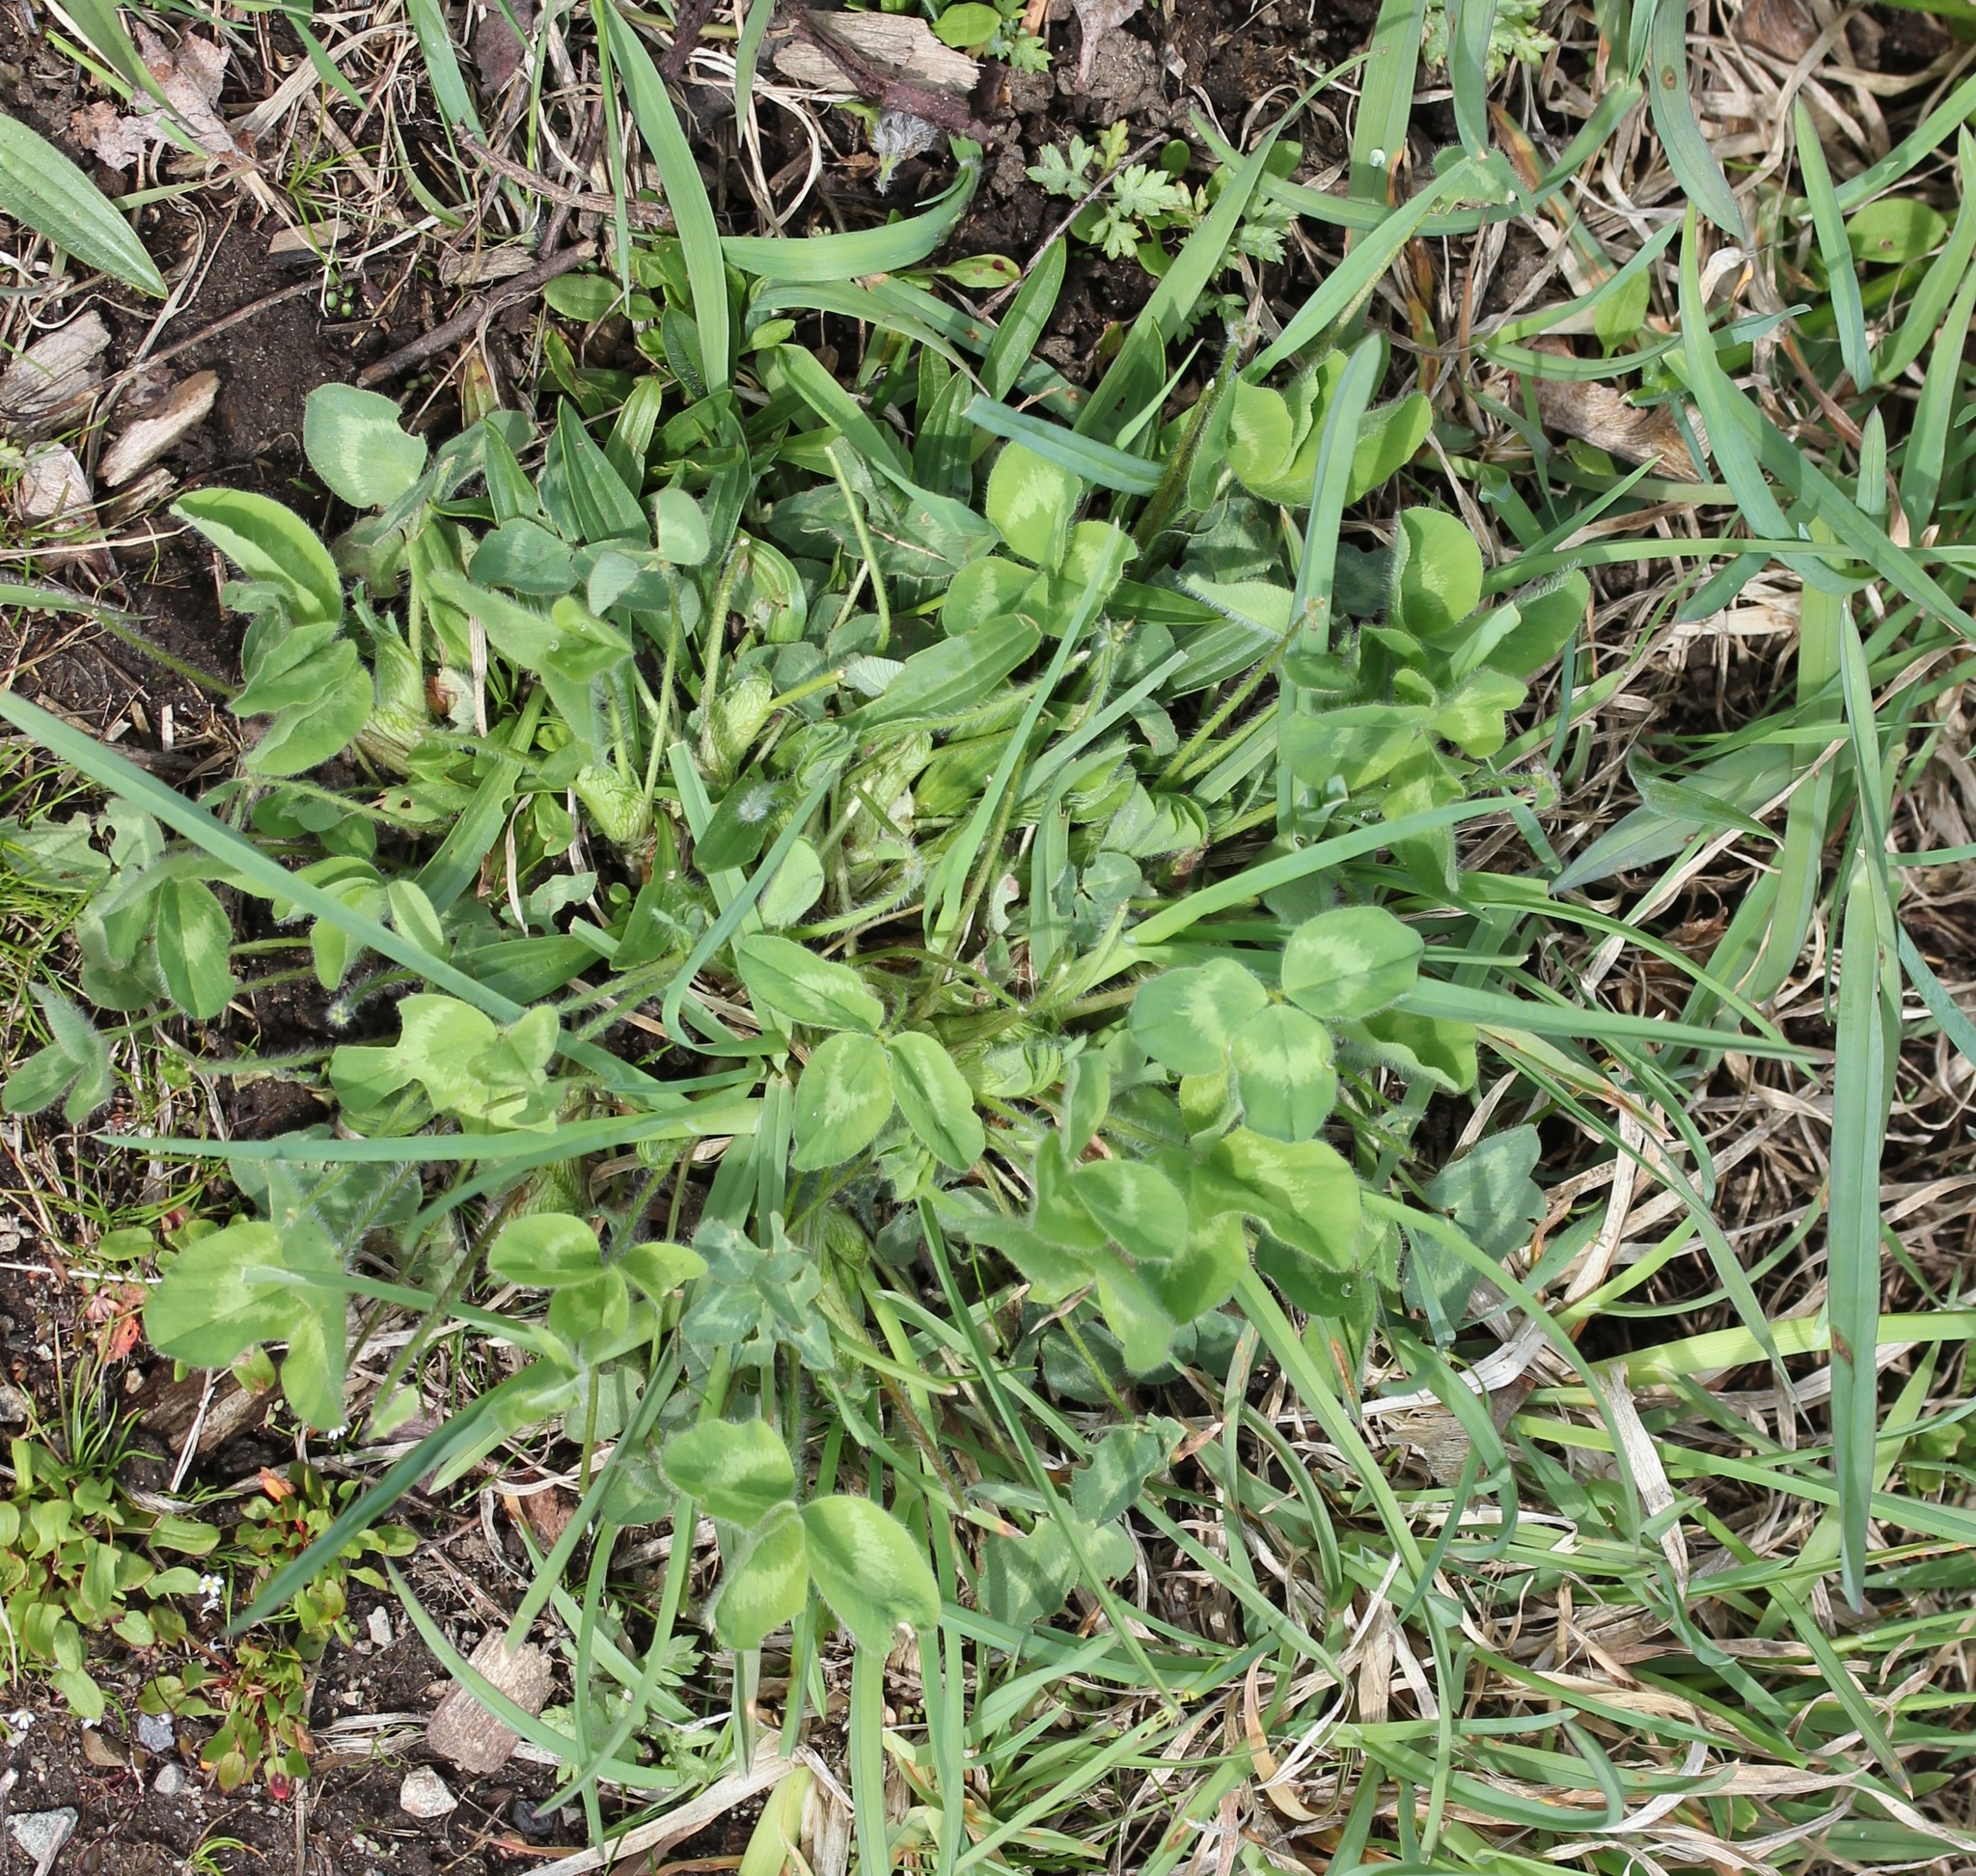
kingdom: Plantae
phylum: Tracheophyta
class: Magnoliopsida
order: Fabales
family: Fabaceae
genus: Trifolium
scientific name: Trifolium pratense
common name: Red clover
